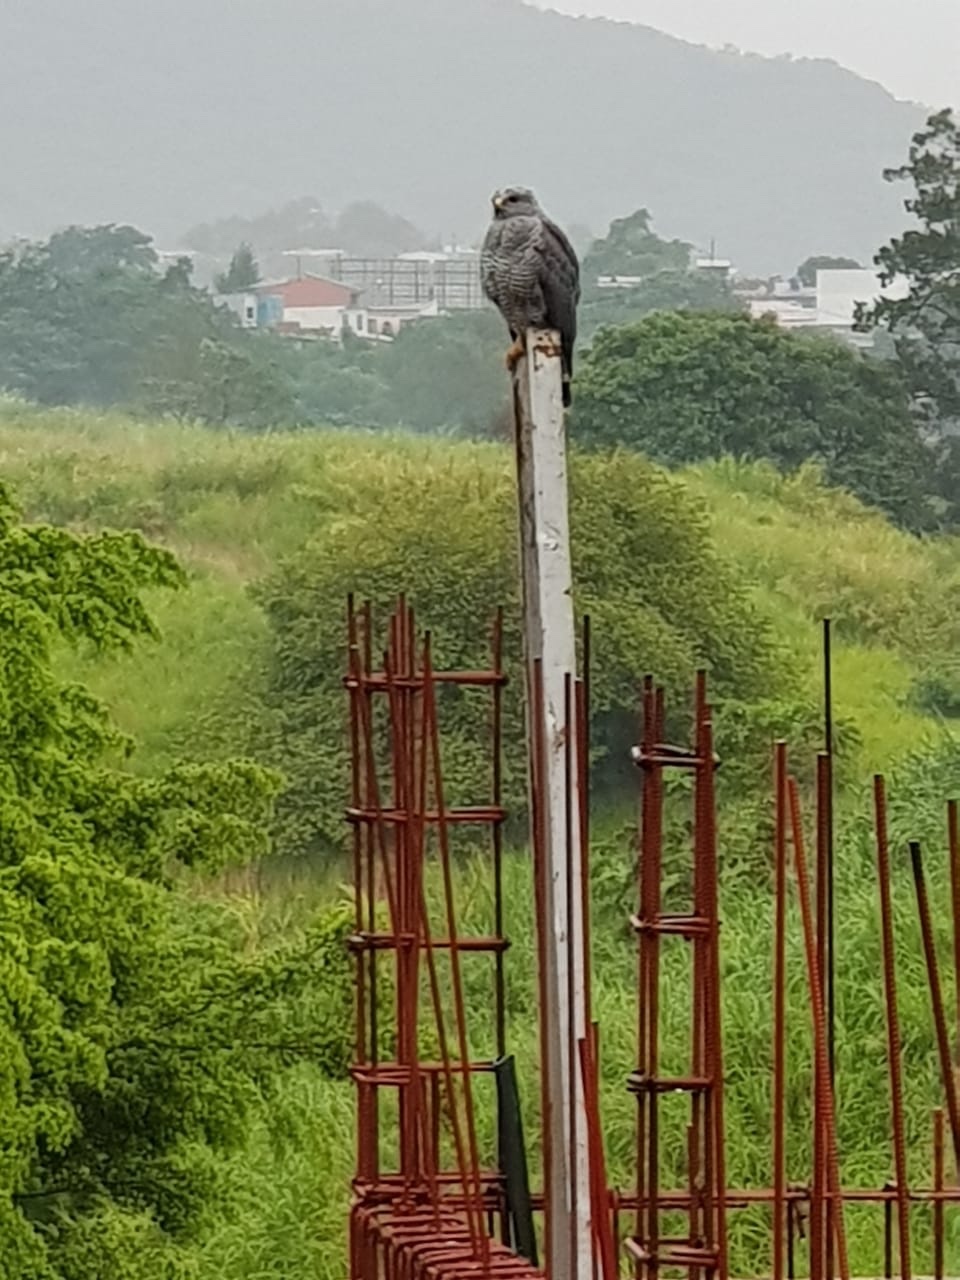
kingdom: Animalia
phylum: Chordata
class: Aves
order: Accipitriformes
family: Accipitridae
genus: Buteo
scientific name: Buteo nitidus
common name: Grey-lined hawk
